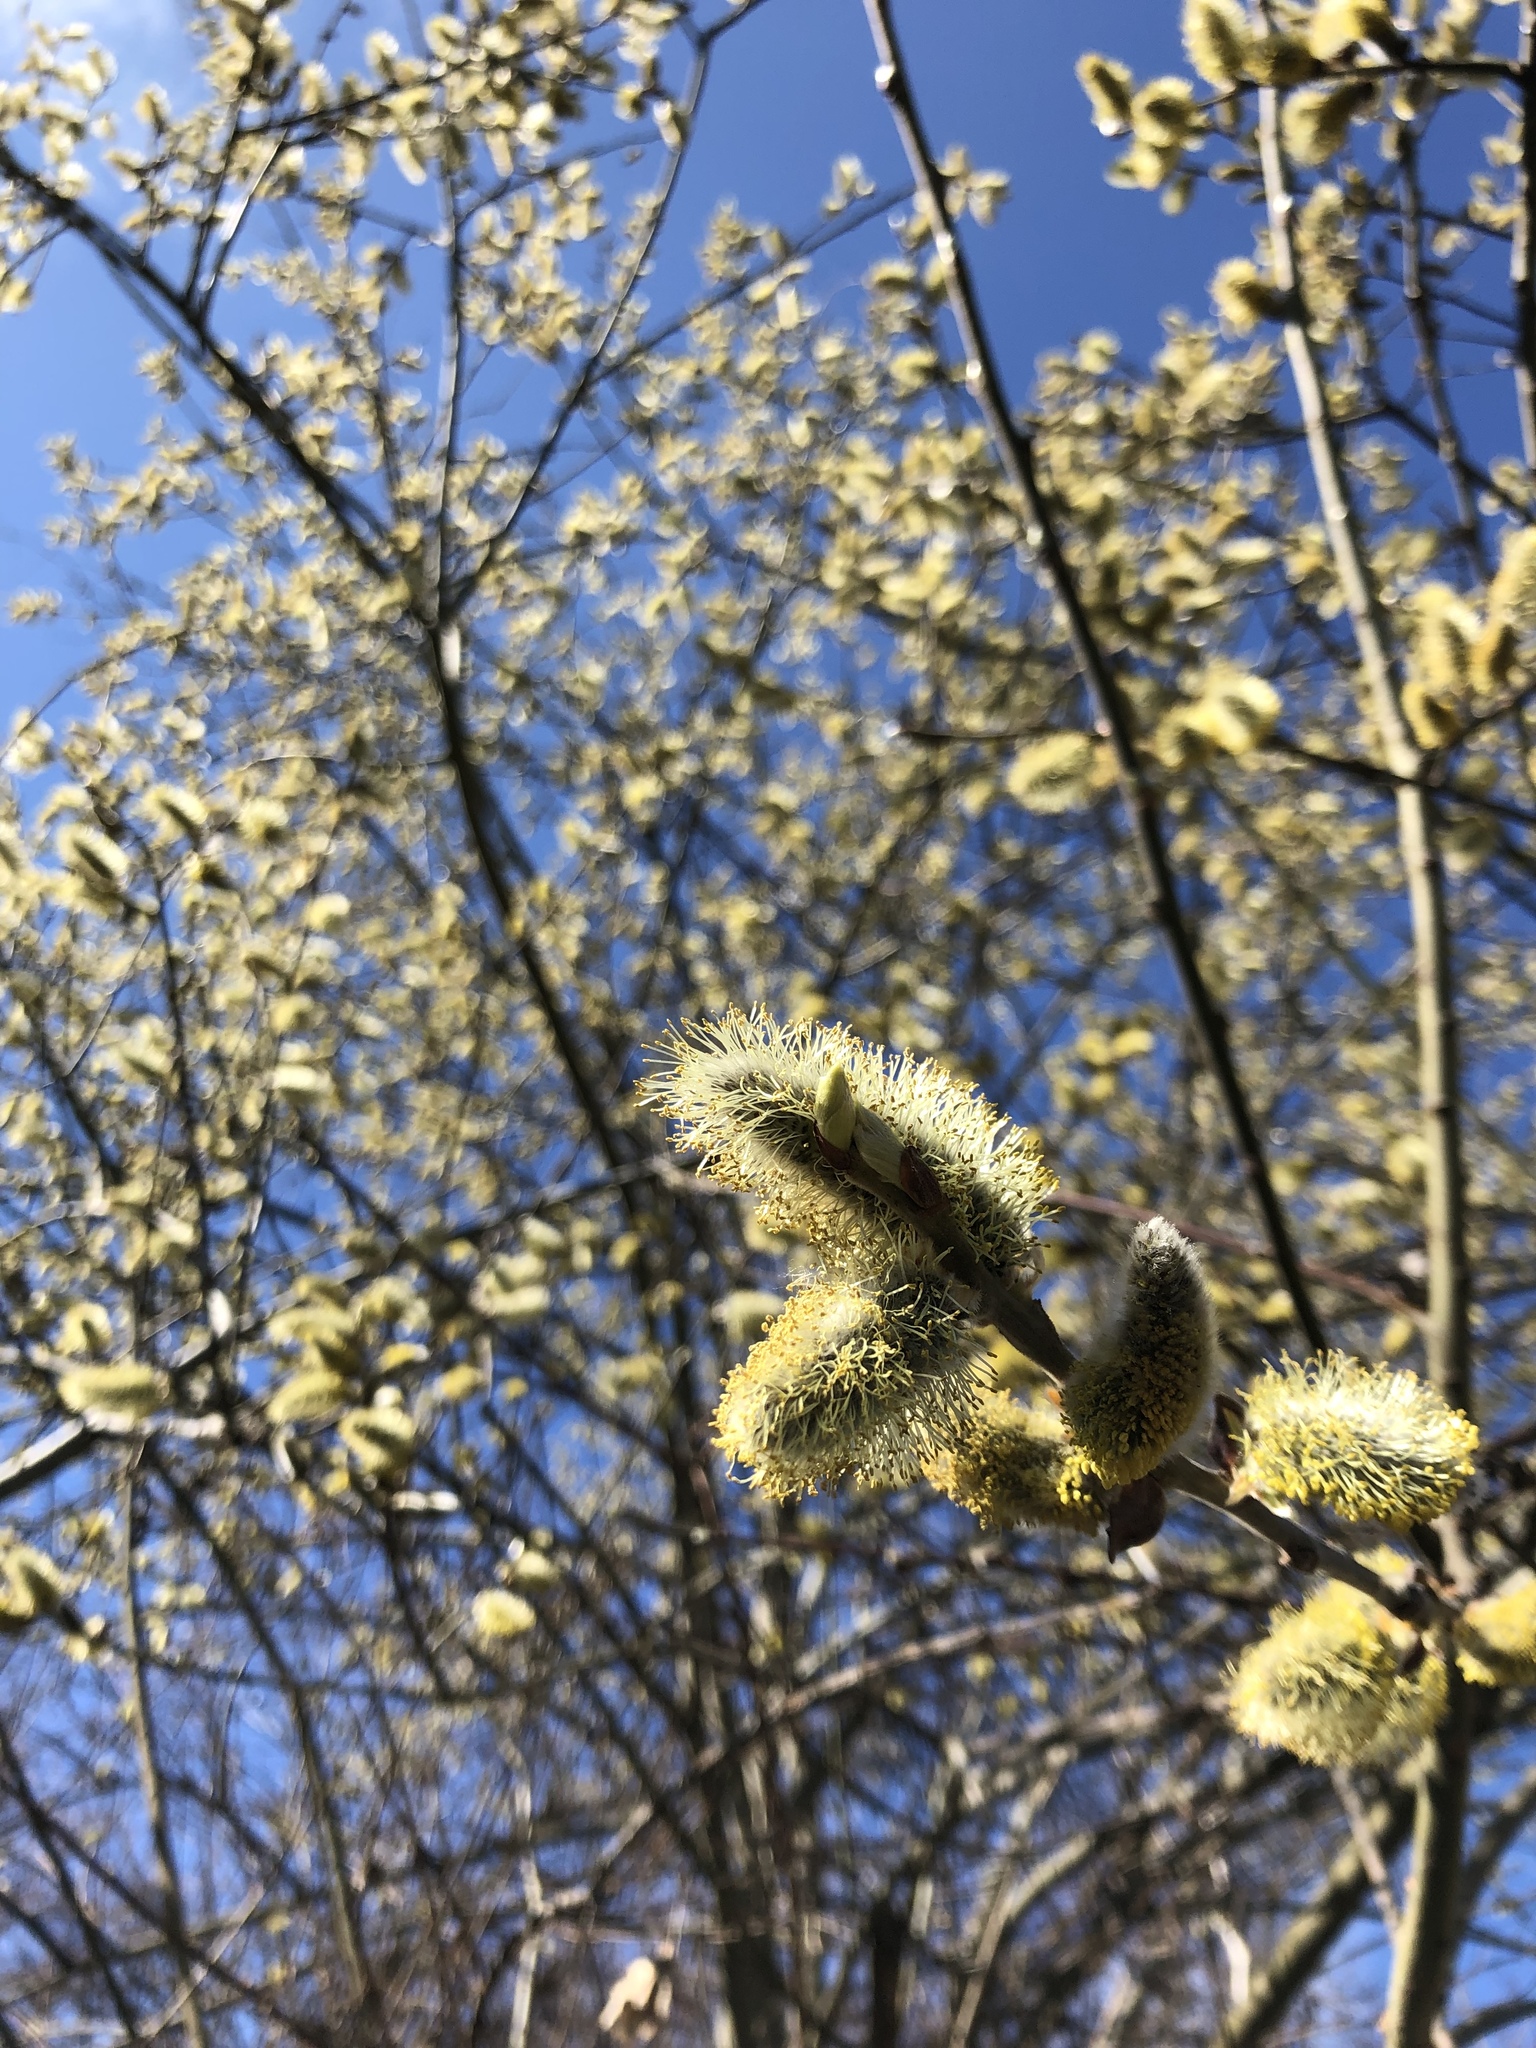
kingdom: Plantae
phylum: Tracheophyta
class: Magnoliopsida
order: Malpighiales
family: Salicaceae
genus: Salix
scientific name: Salix caprea
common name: Goat willow
